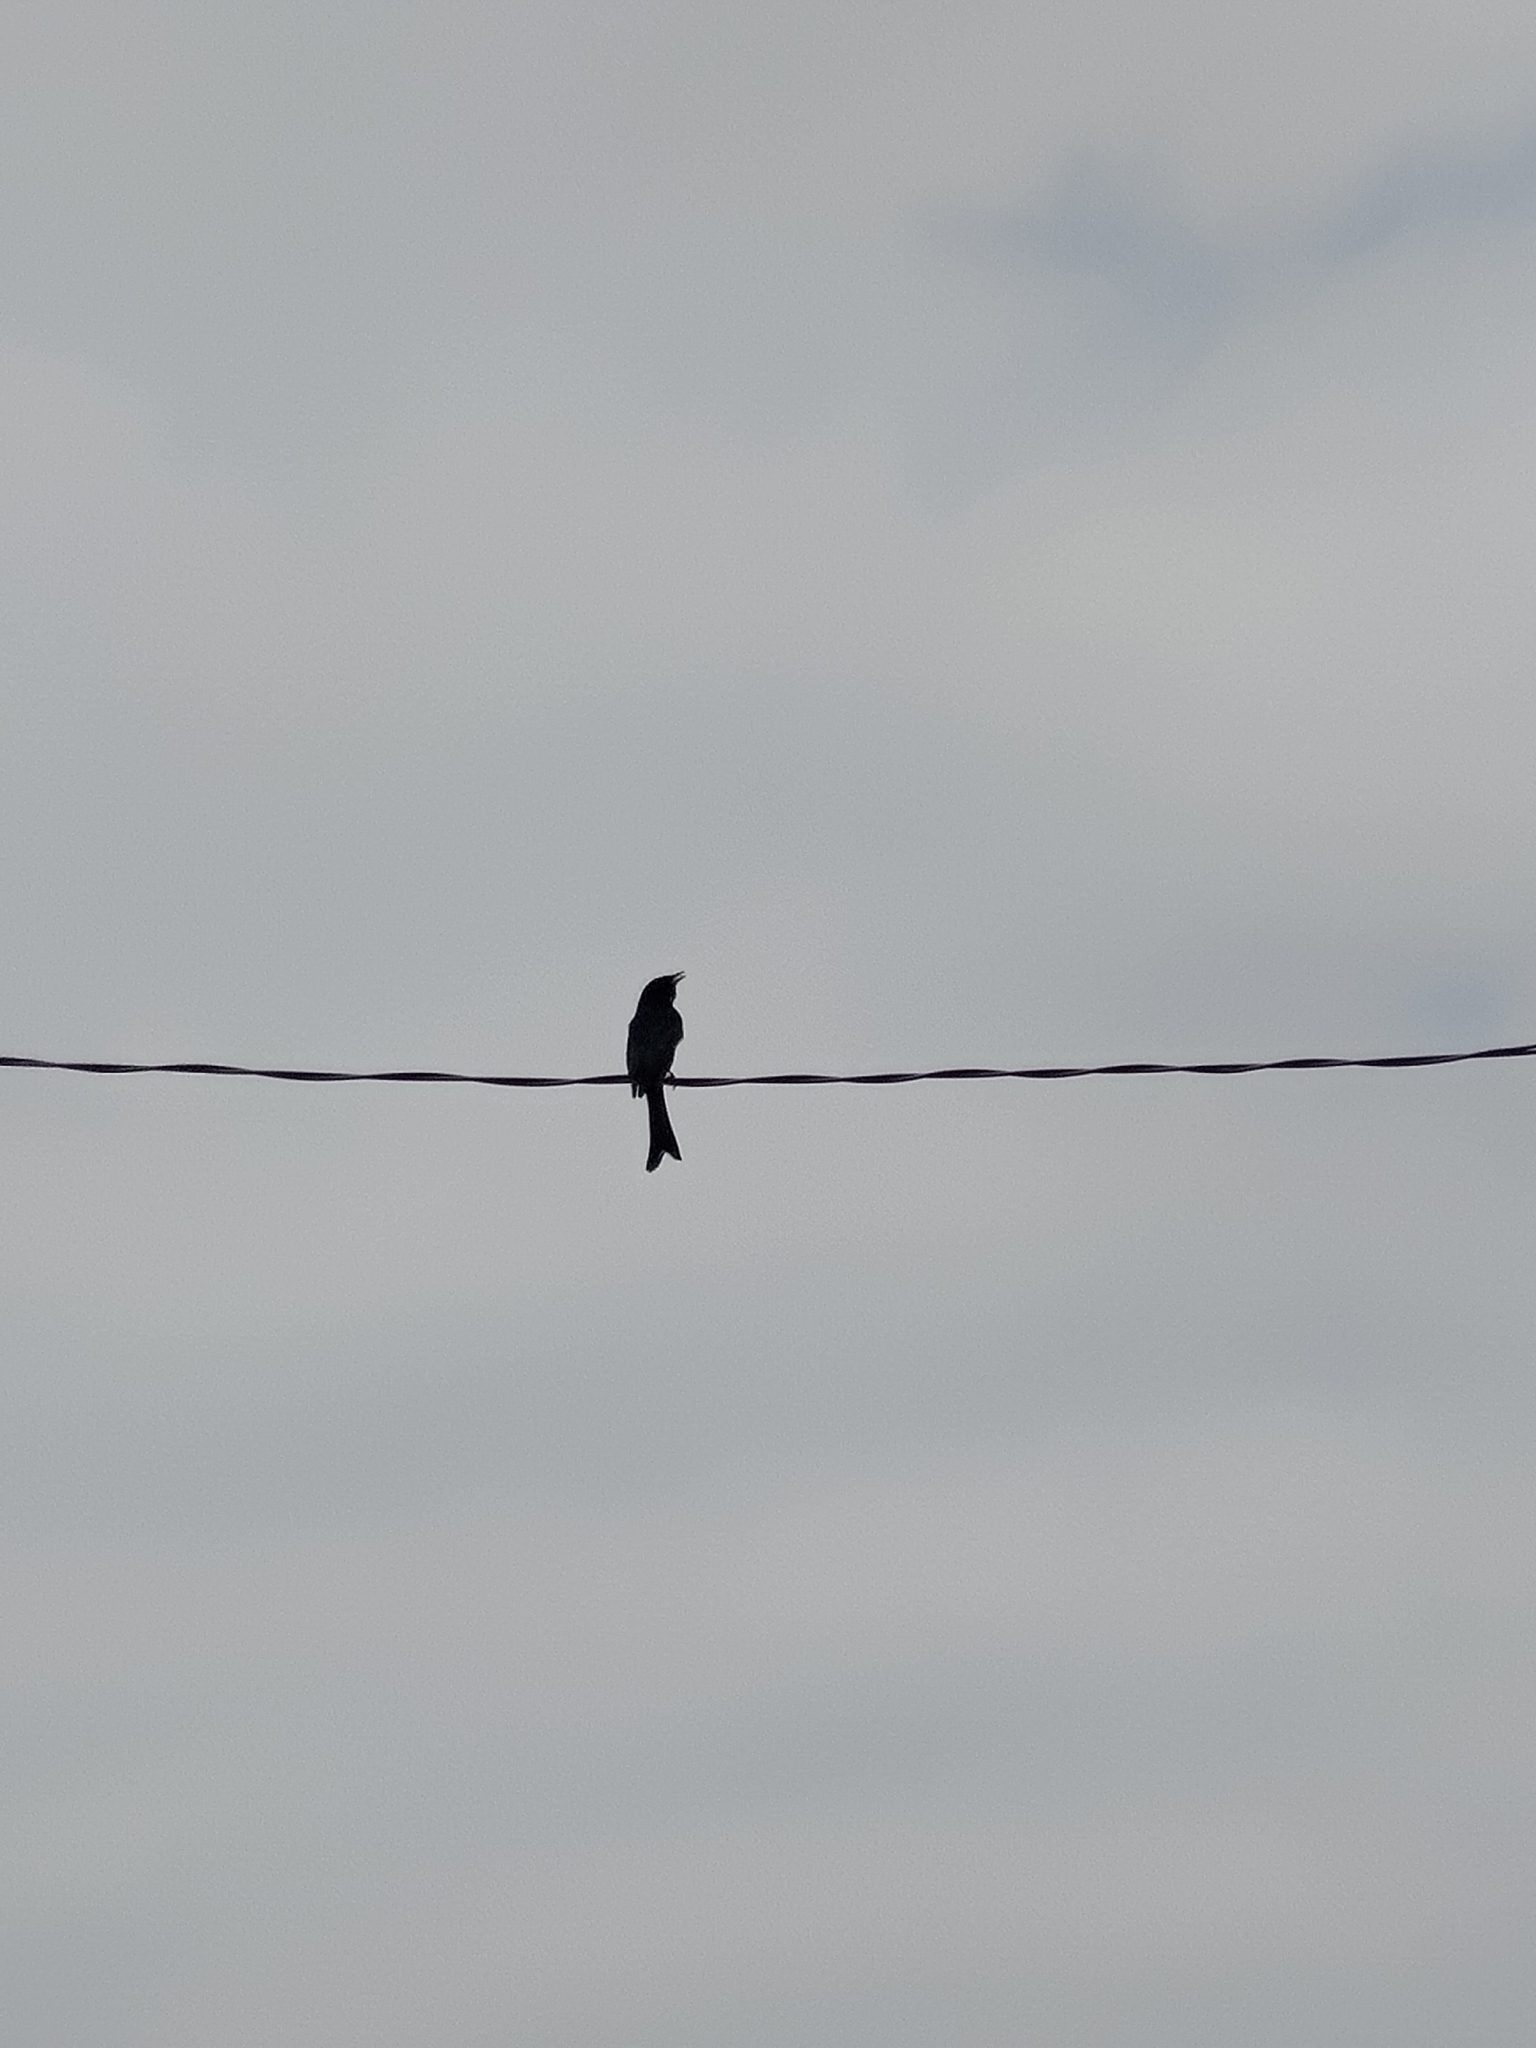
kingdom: Animalia
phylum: Chordata
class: Aves
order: Passeriformes
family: Dicruridae
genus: Dicrurus
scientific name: Dicrurus macrocercus
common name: Black drongo
